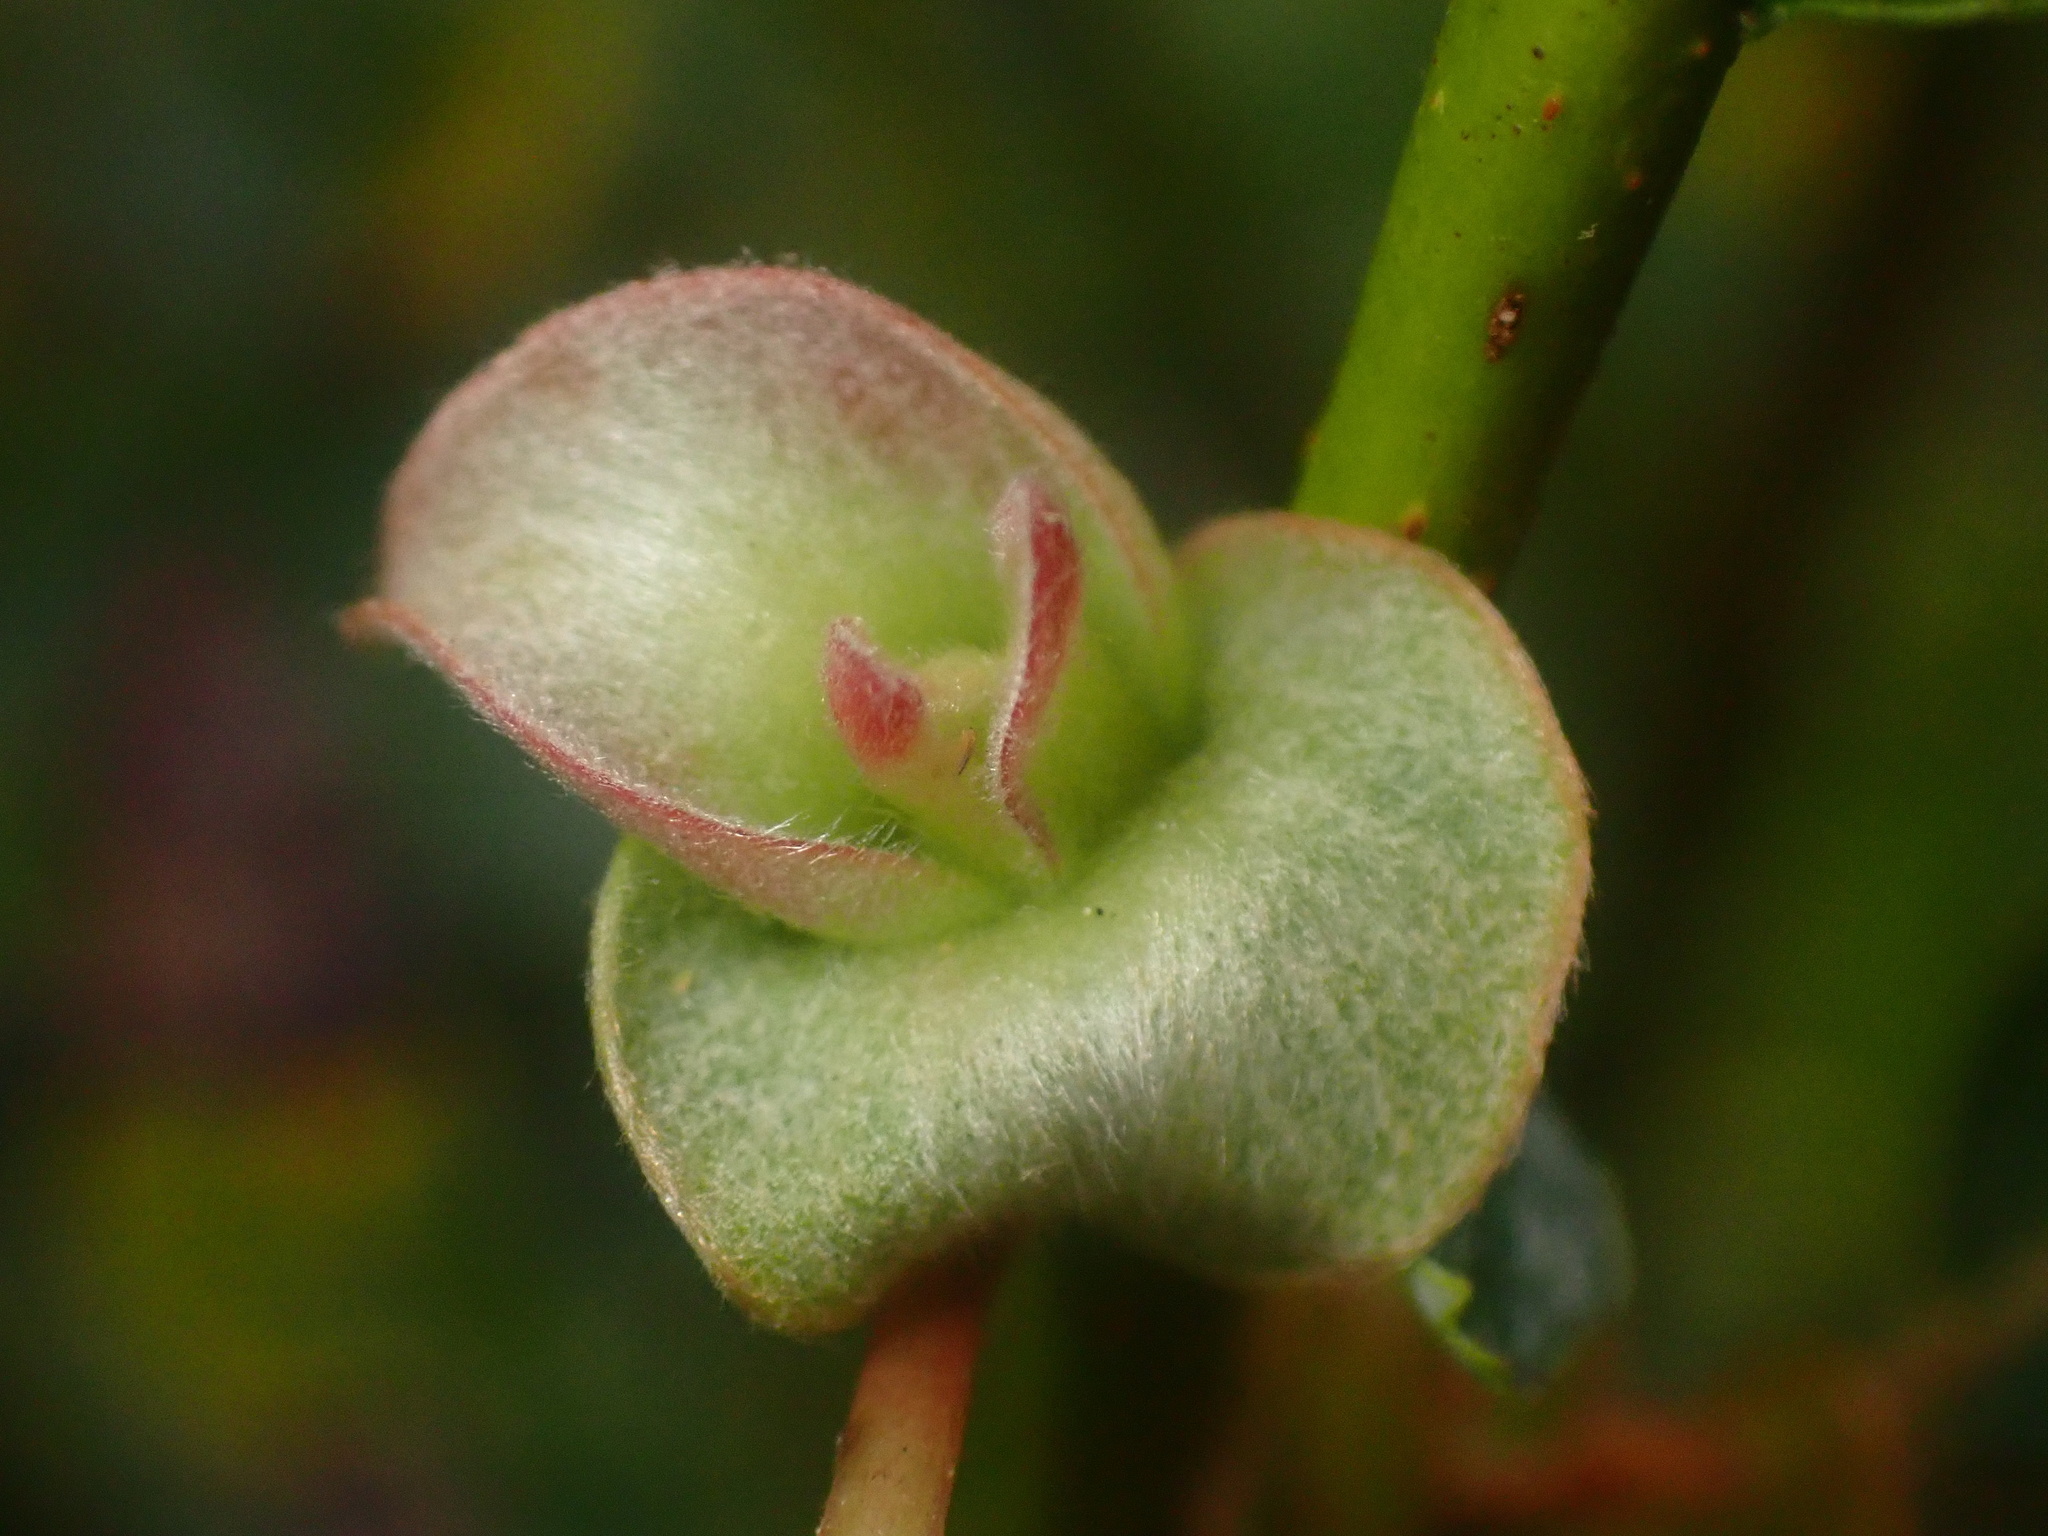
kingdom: Animalia
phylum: Arthropoda
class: Insecta
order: Diptera
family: Cecidomyiidae
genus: Rabdophaga
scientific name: Rabdophaga salicisbrassicoides
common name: Willow cabbagegall midge
